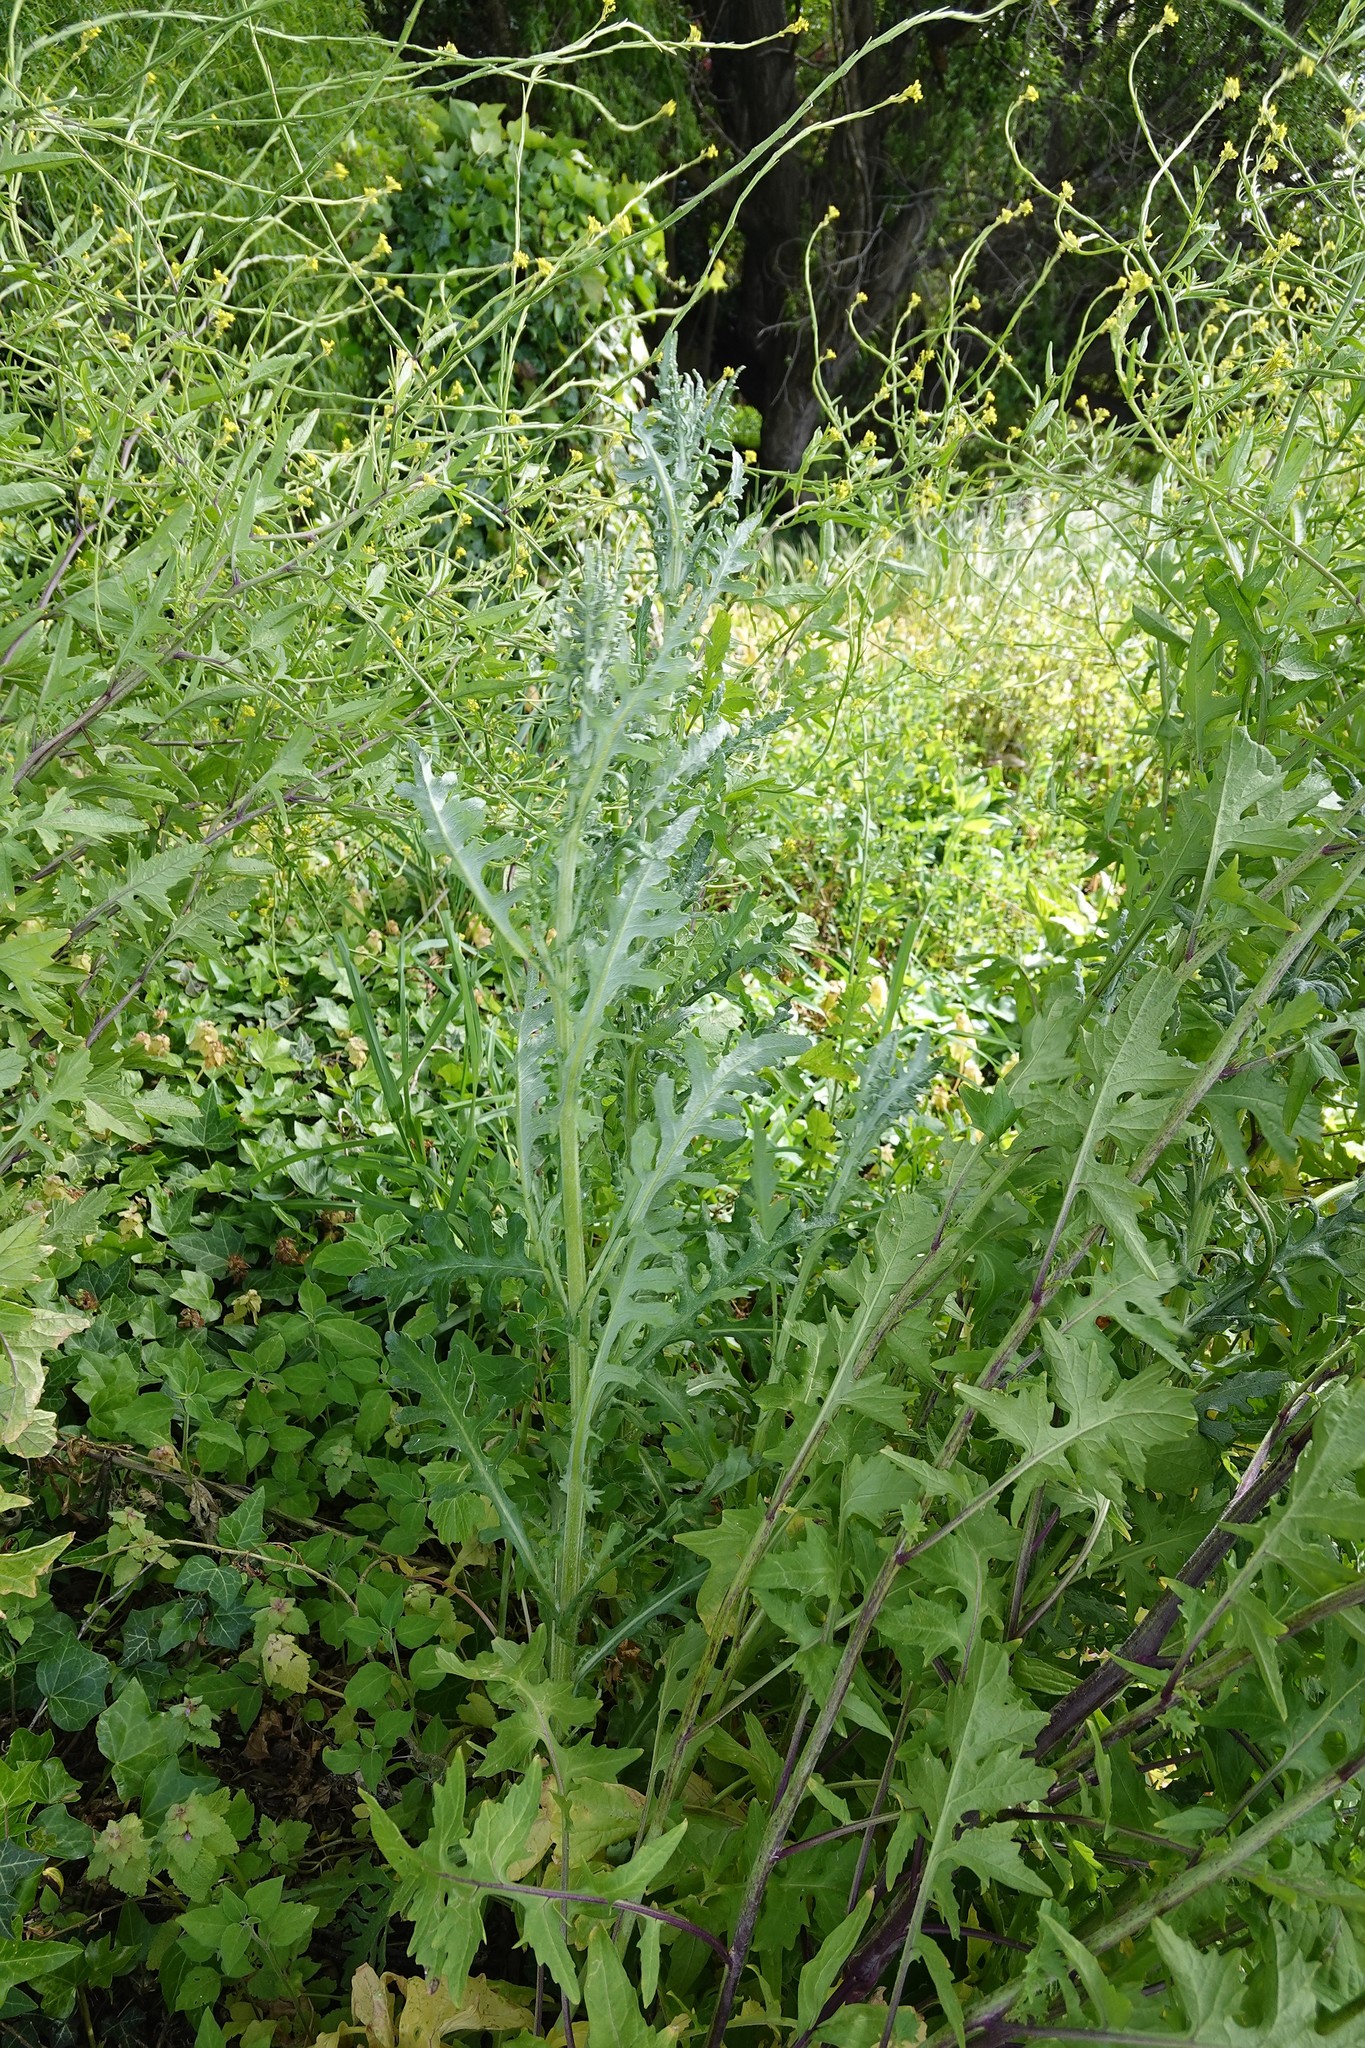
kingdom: Plantae
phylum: Tracheophyta
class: Magnoliopsida
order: Asterales
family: Asteraceae
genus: Senecio
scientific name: Senecio glomeratus
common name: Cutleaf burnweed
